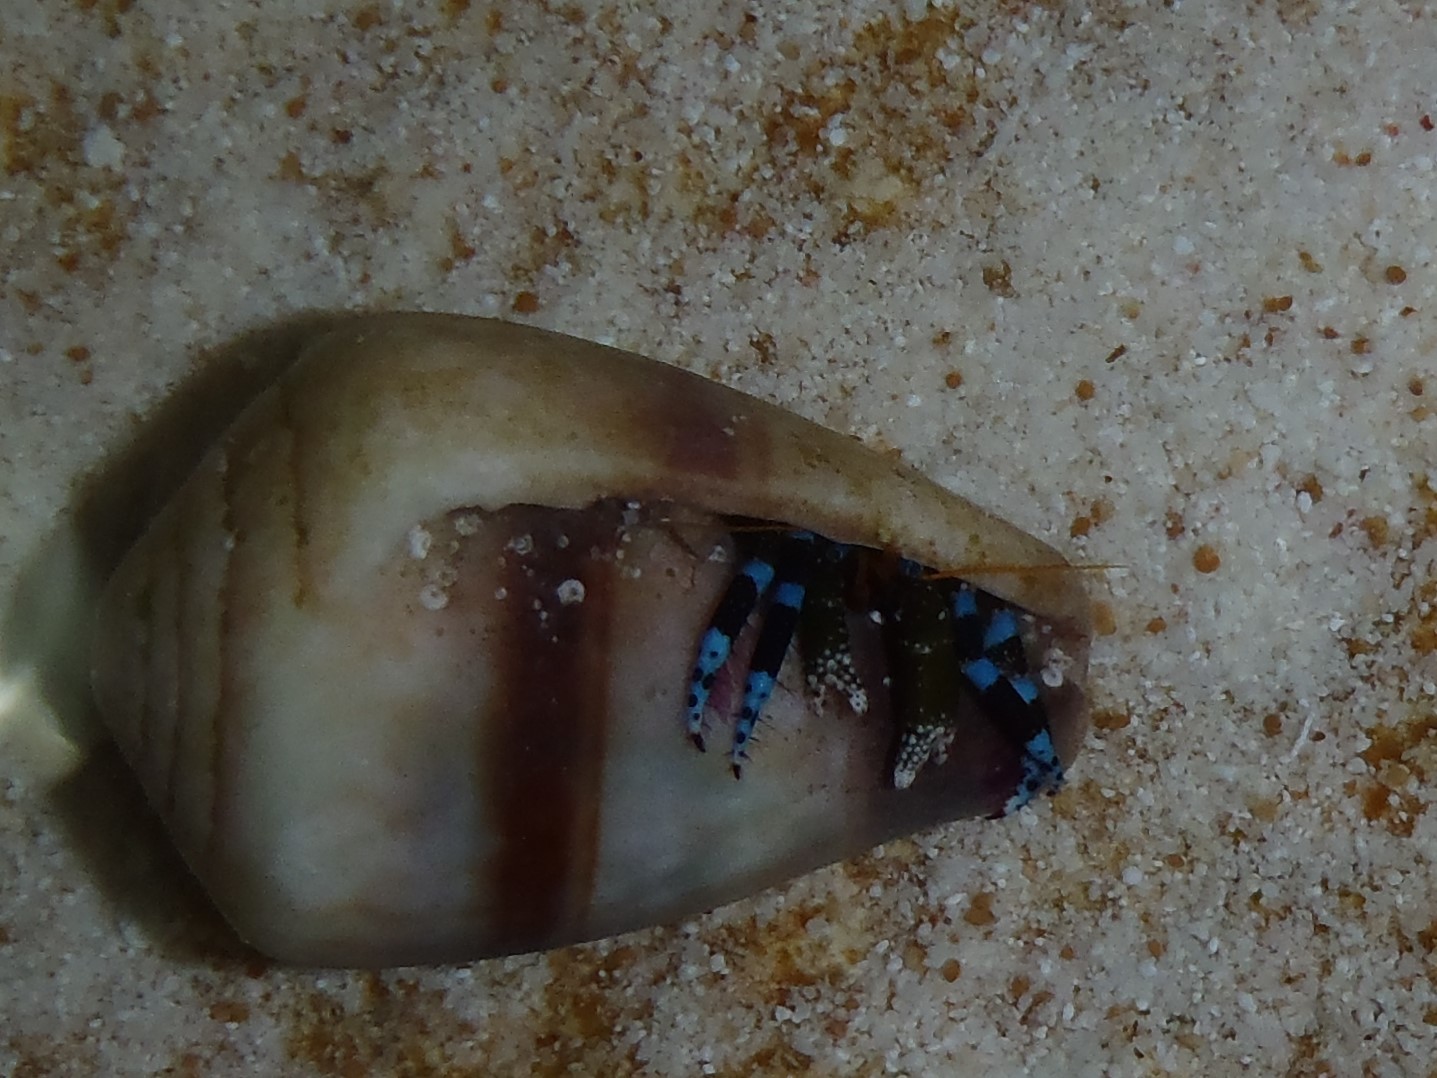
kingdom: Animalia
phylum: Arthropoda
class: Malacostraca
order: Decapoda
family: Diogenidae
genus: Calcinus
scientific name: Calcinus elegans
